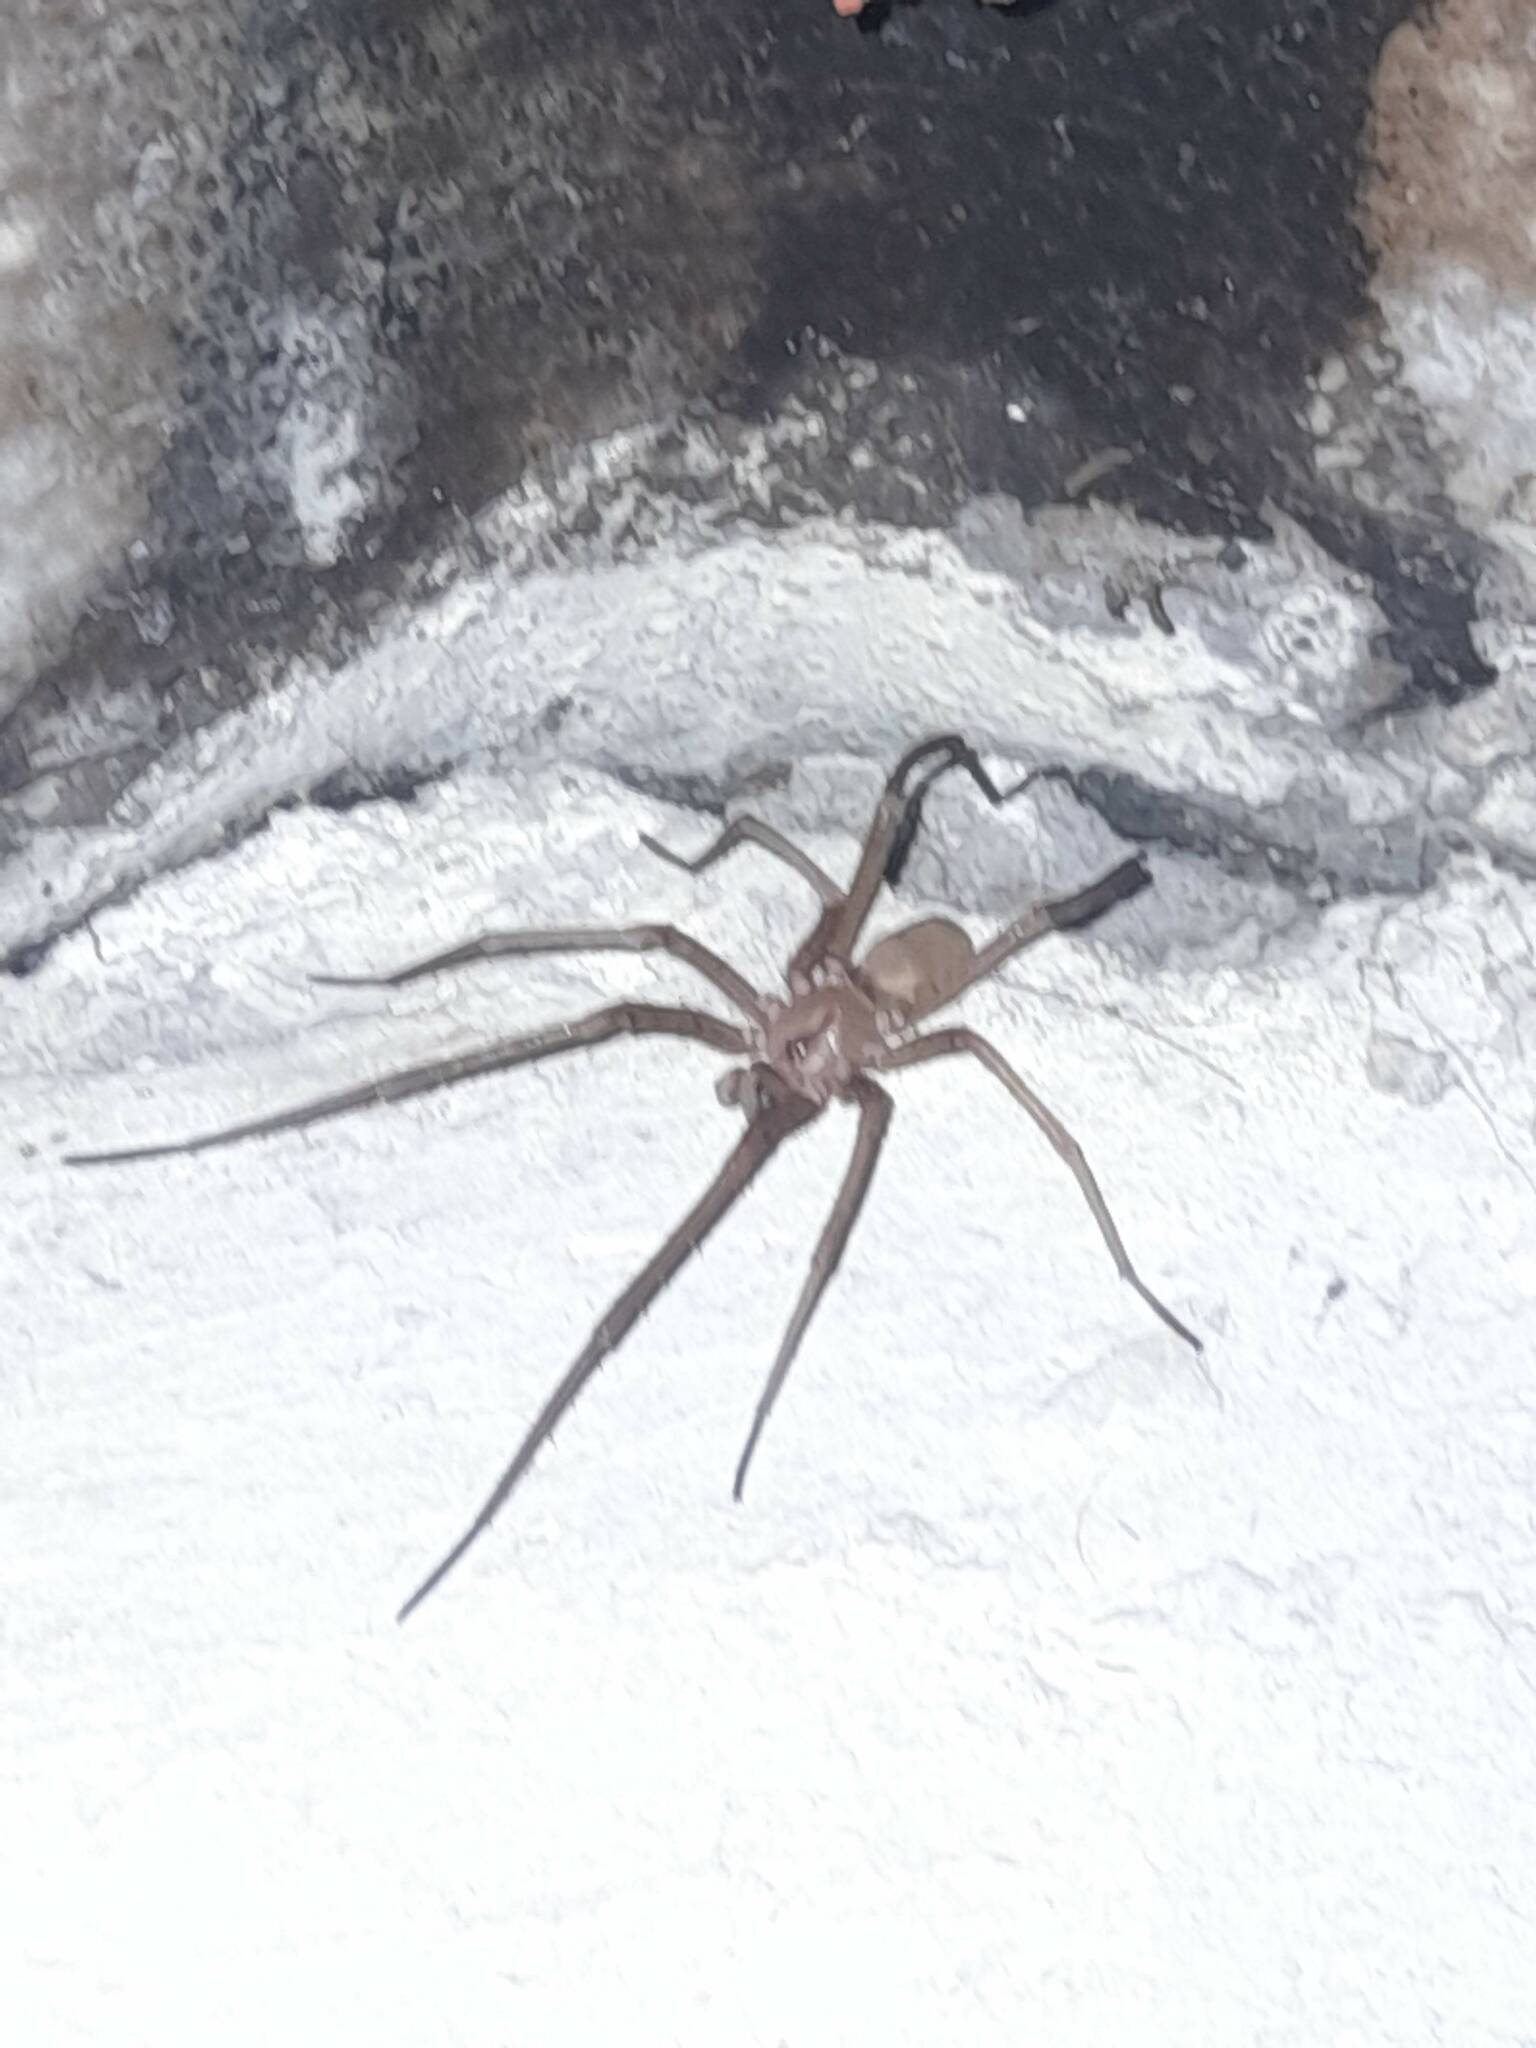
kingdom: Animalia
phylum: Arthropoda
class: Arachnida
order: Araneae
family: Filistatidae
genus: Kukulcania
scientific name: Kukulcania hibernalis
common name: Crevice weaver
